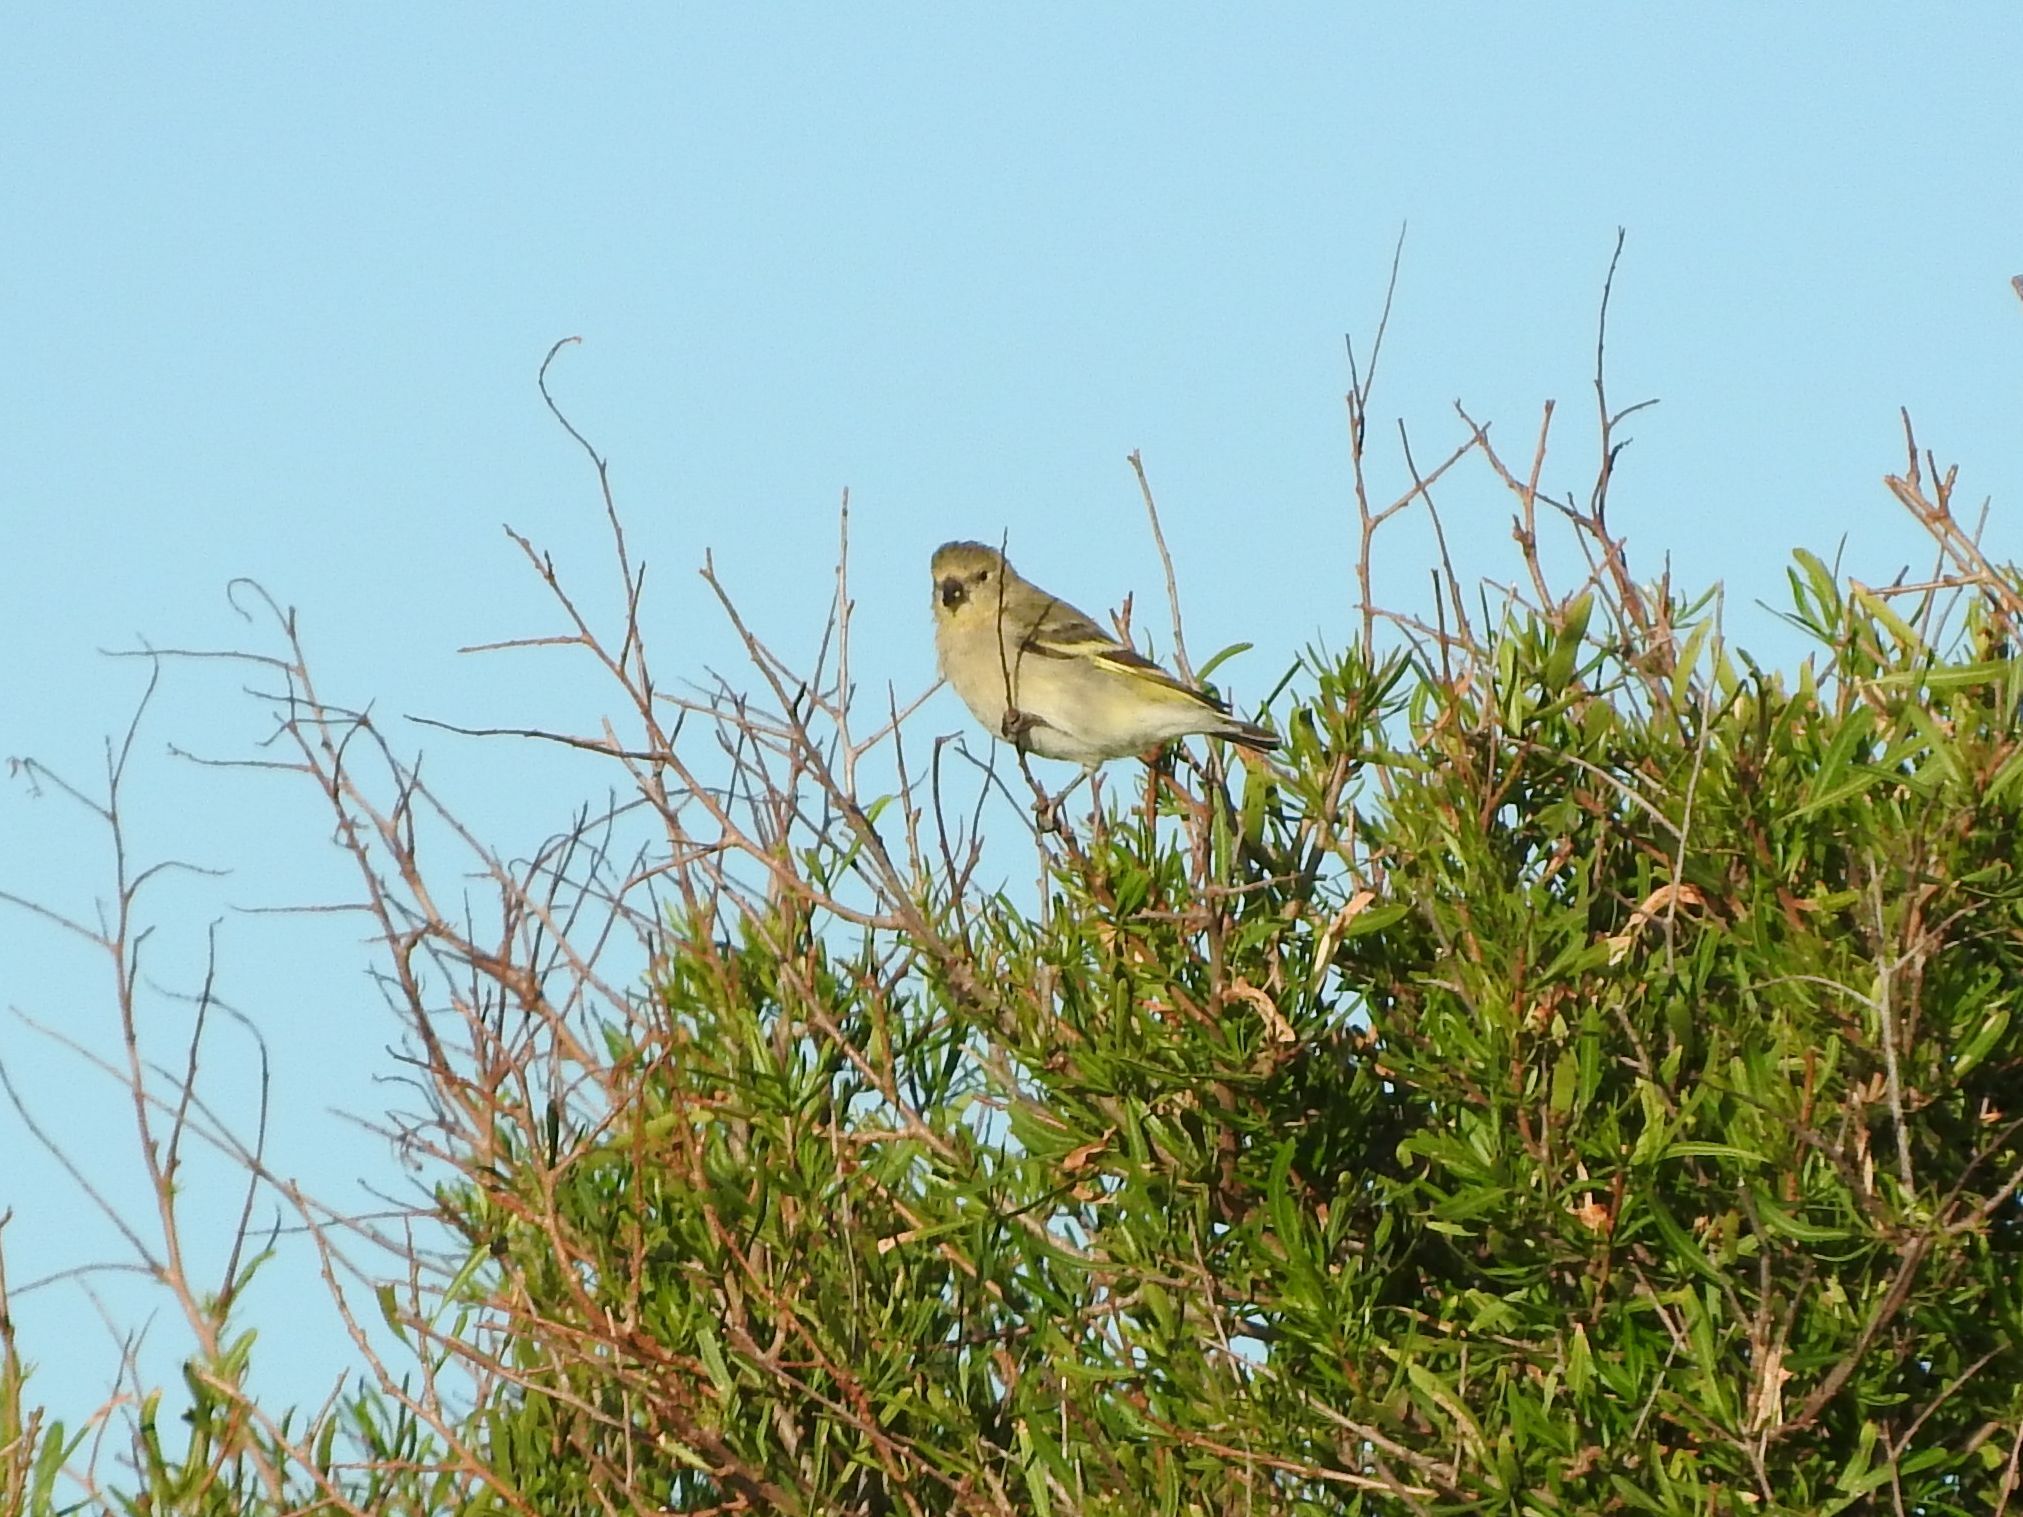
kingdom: Animalia
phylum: Chordata
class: Aves
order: Passeriformes
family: Fringillidae
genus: Spinus
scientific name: Spinus magellanicus
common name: Hooded siskin
